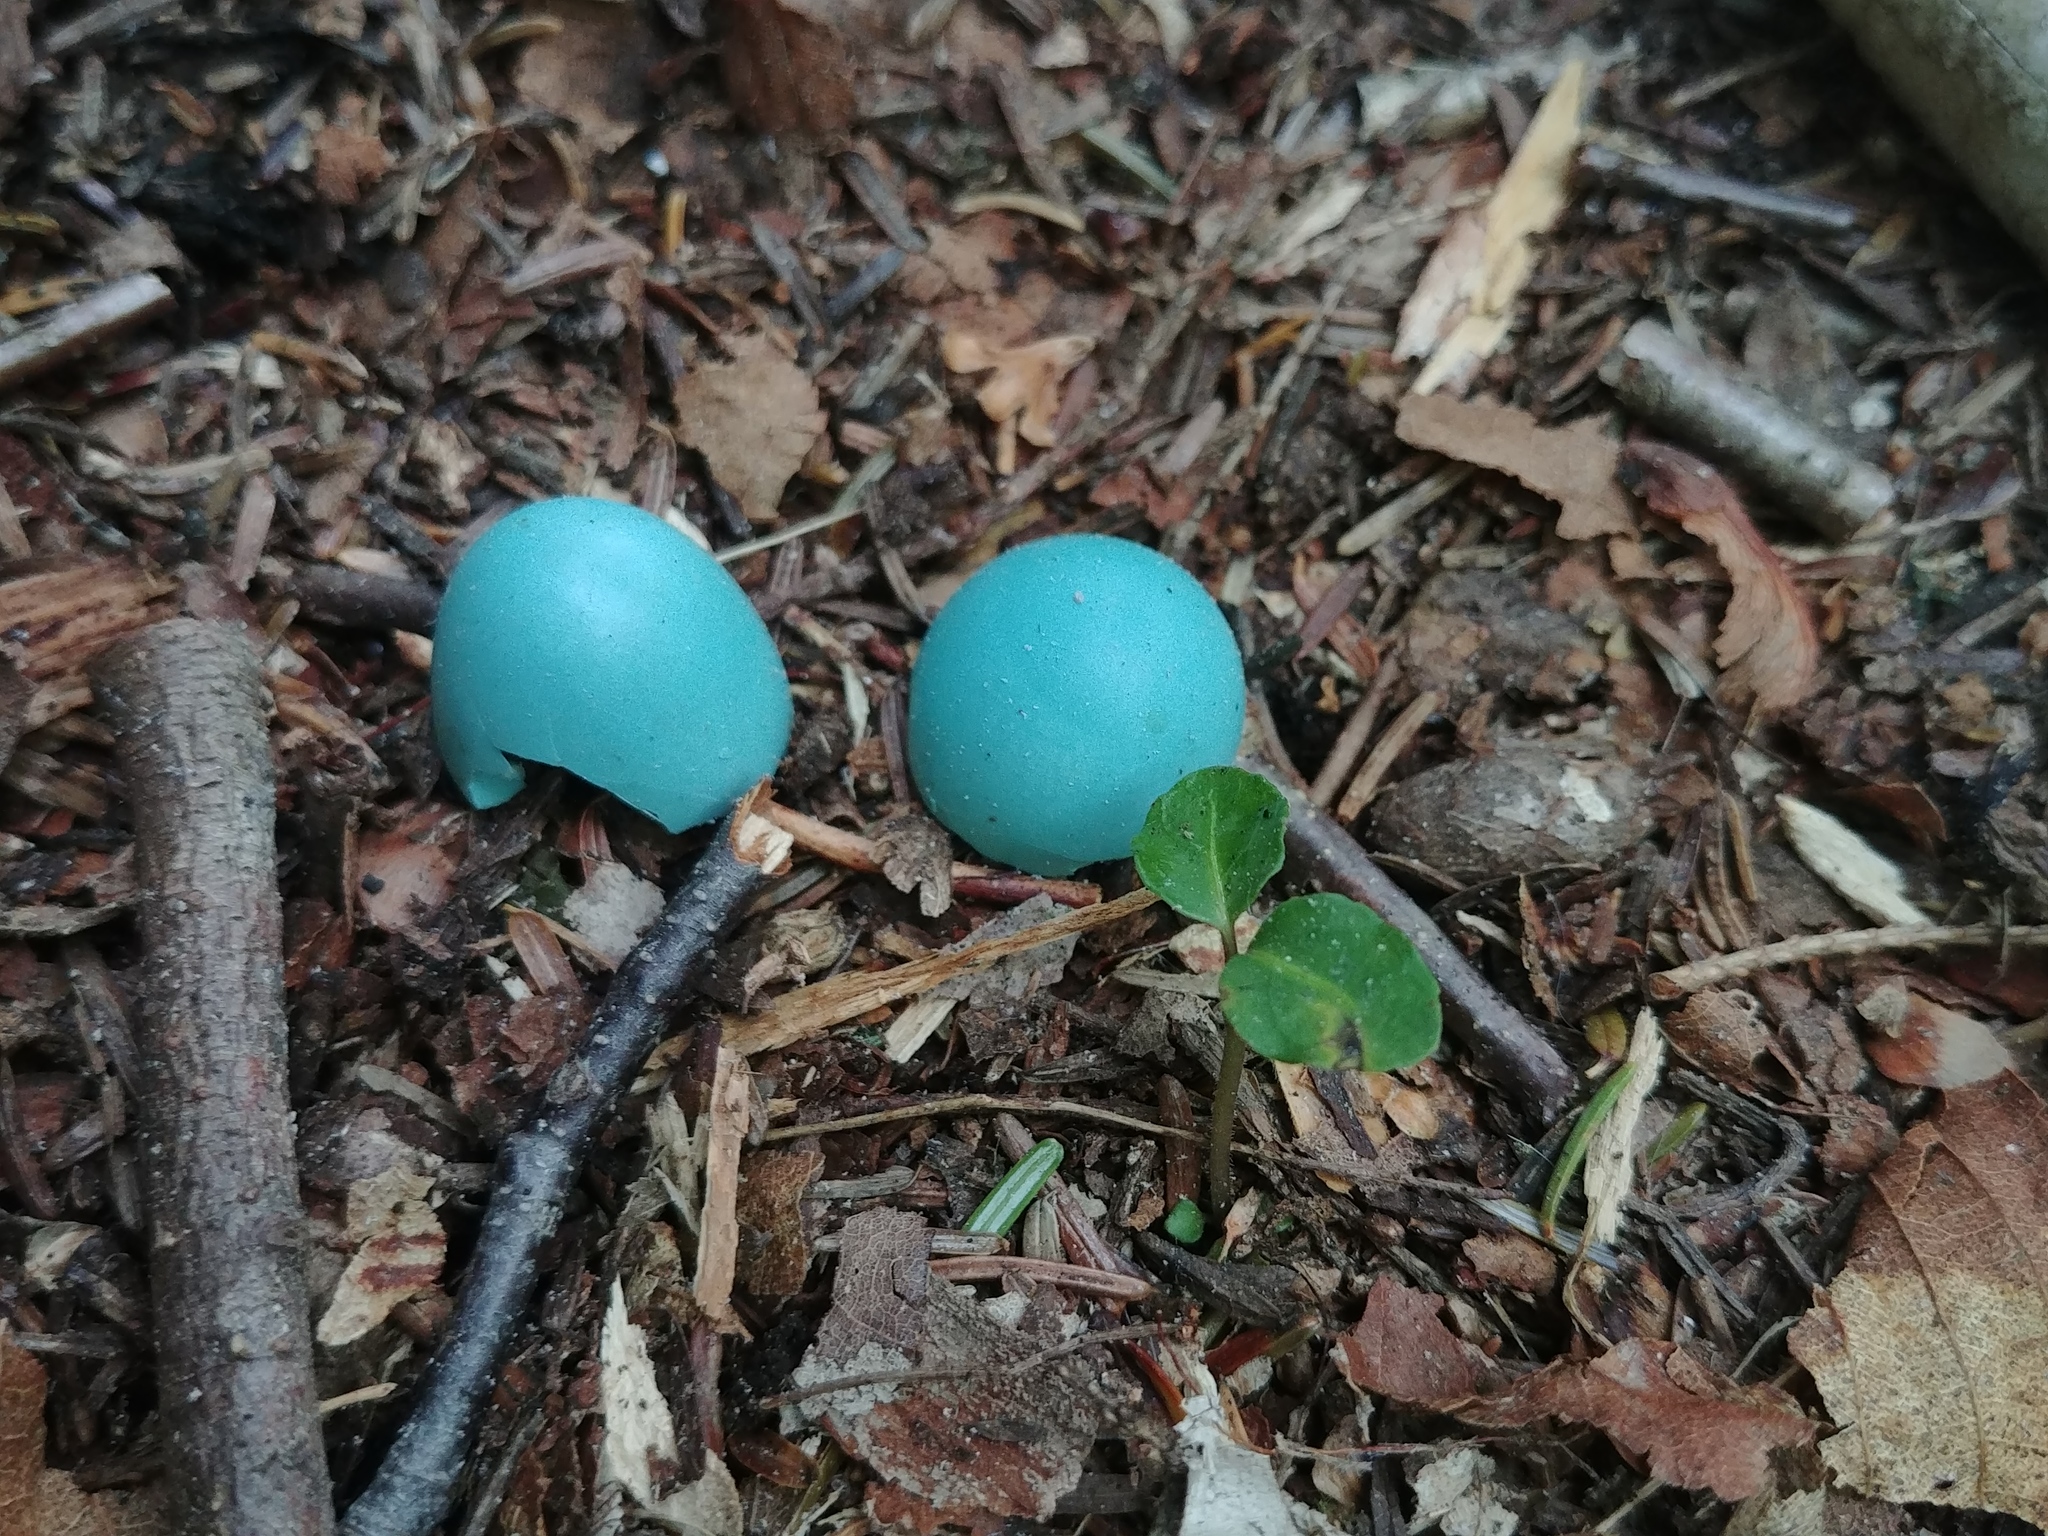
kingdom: Animalia
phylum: Chordata
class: Aves
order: Passeriformes
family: Turdidae
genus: Turdus
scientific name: Turdus migratorius
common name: American robin
